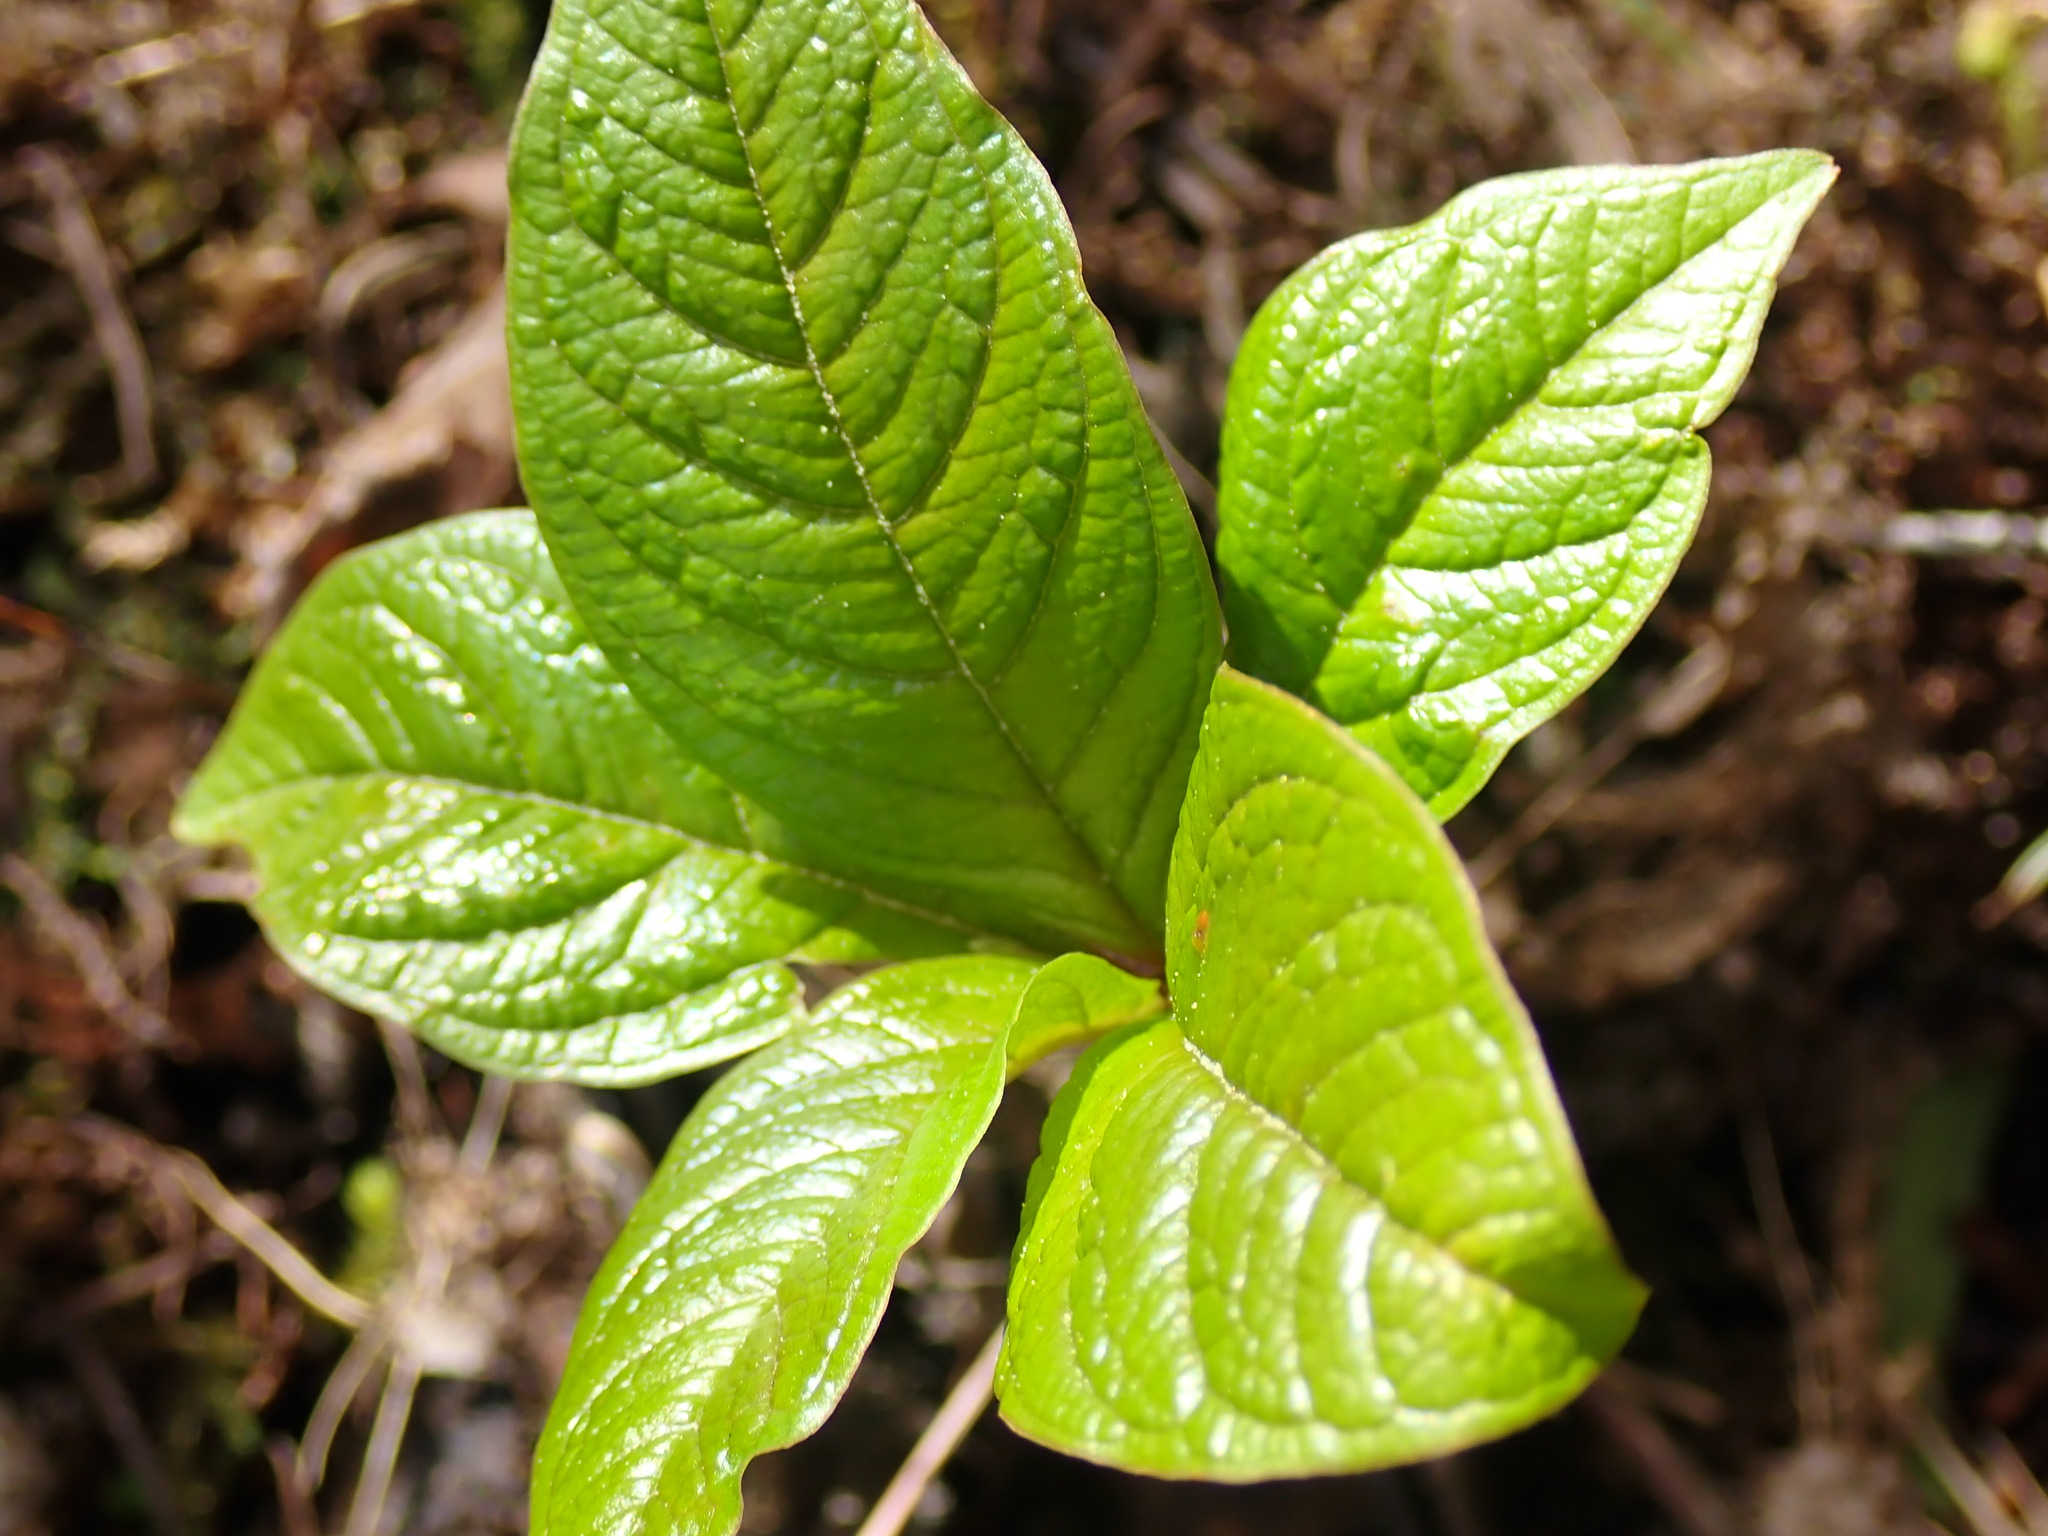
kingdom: Plantae
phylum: Tracheophyta
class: Magnoliopsida
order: Ericales
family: Primulaceae
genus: Lysimachia
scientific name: Lysimachia latifolia
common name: Pacific starflower
